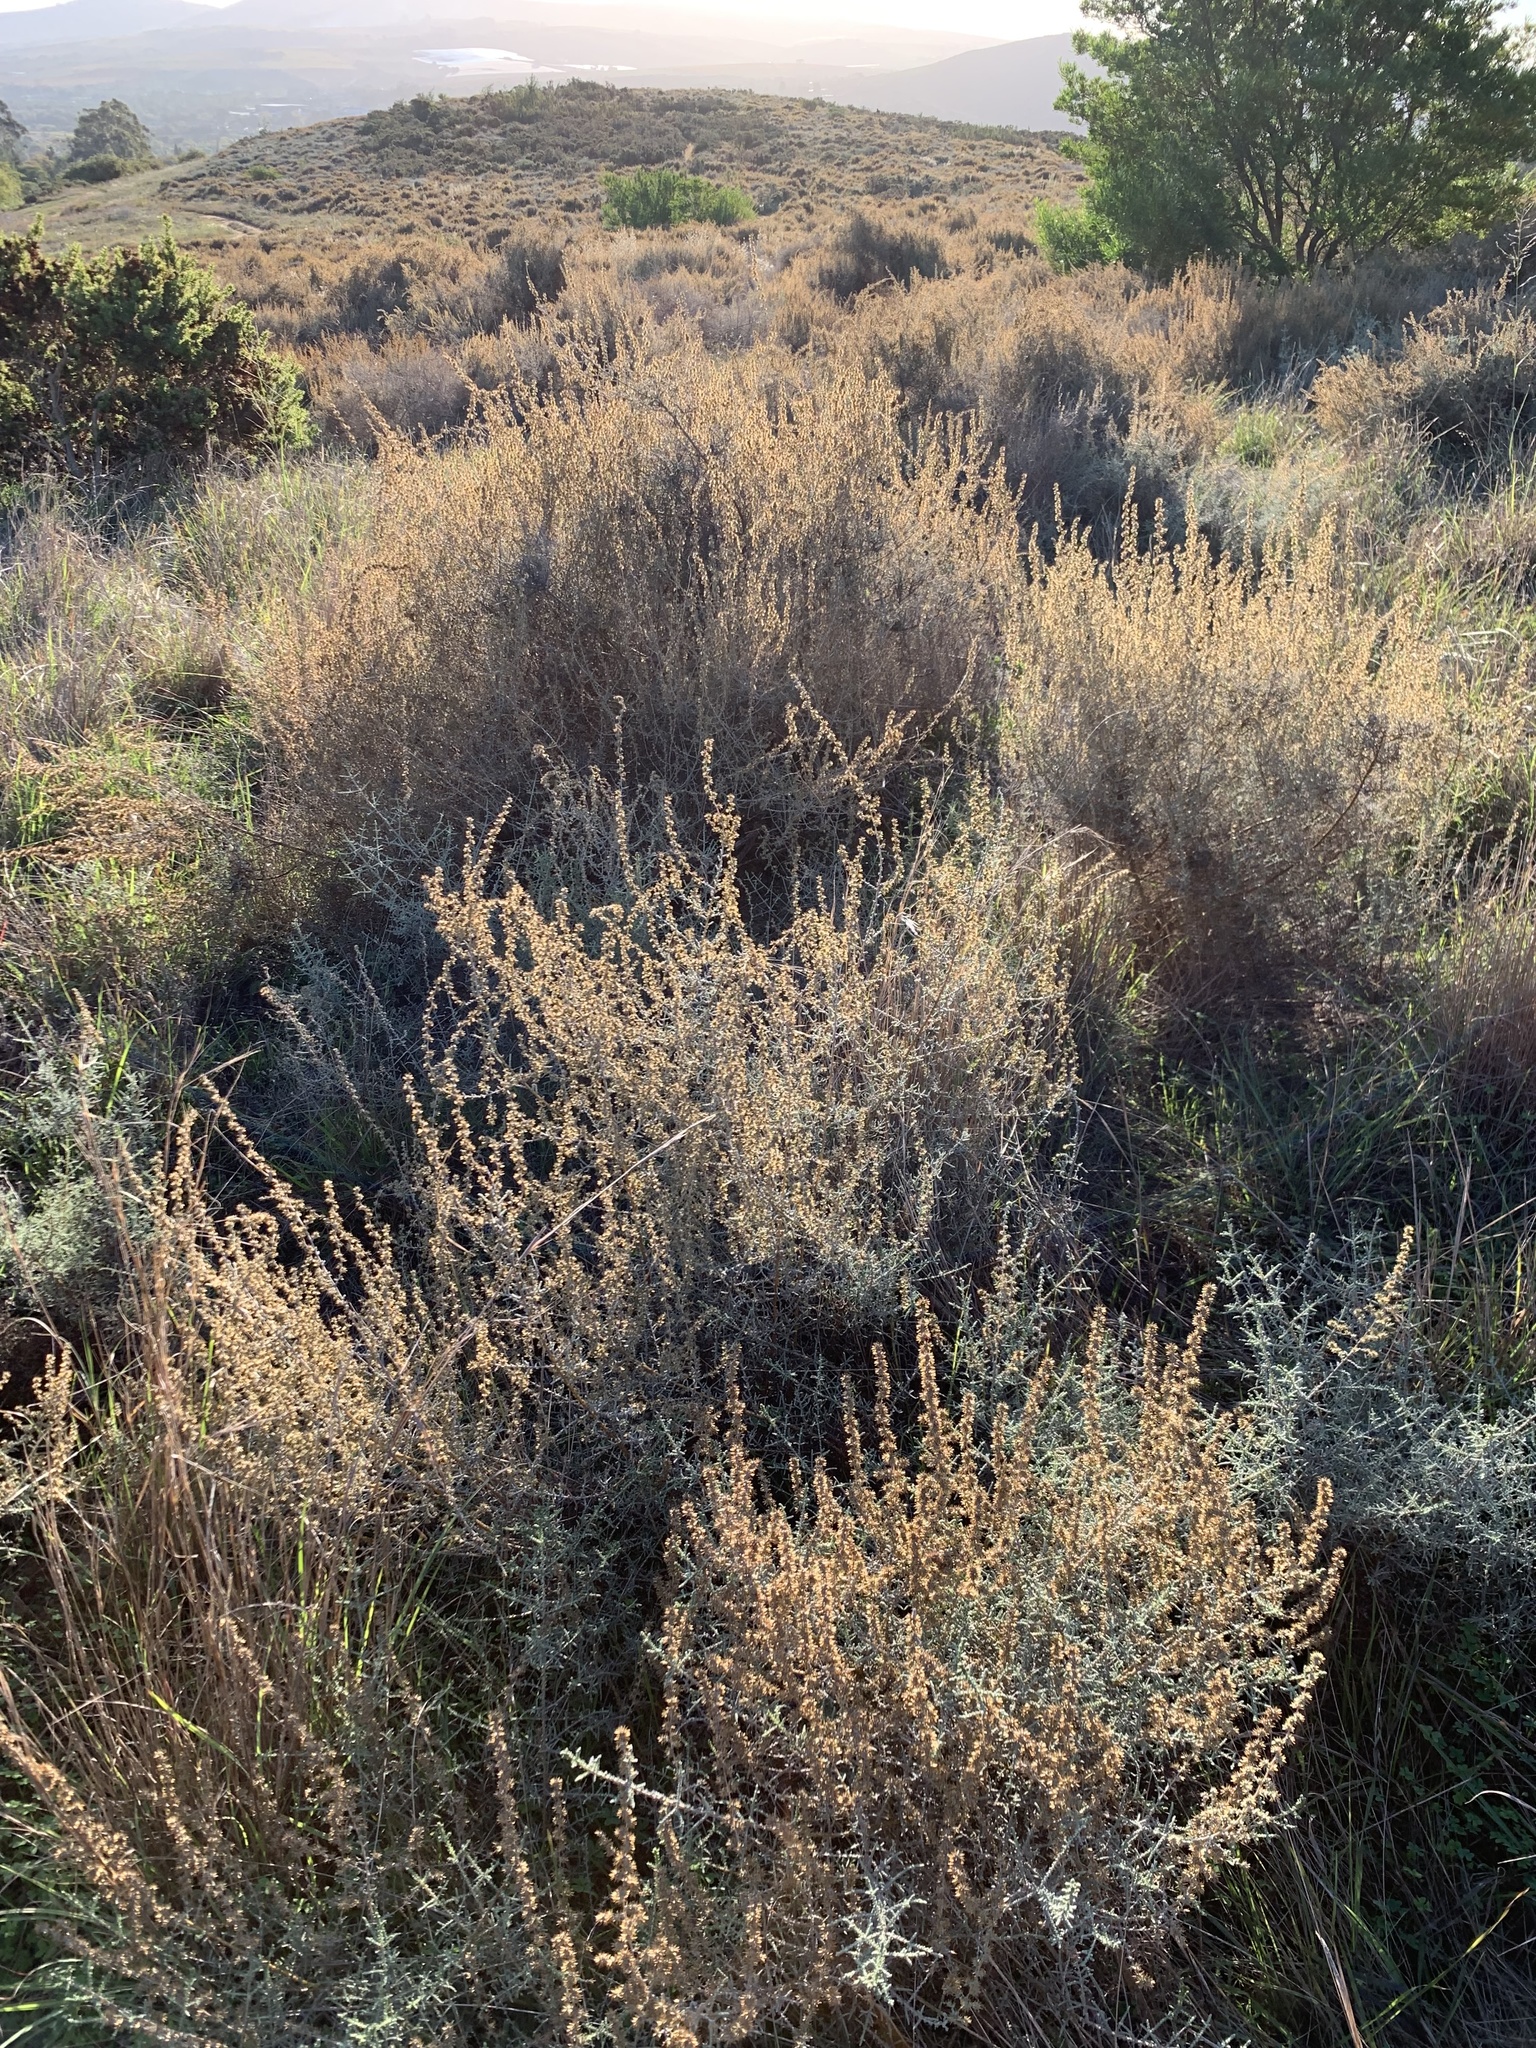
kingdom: Plantae
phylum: Tracheophyta
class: Magnoliopsida
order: Asterales
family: Asteraceae
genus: Seriphium
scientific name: Seriphium plumosum
